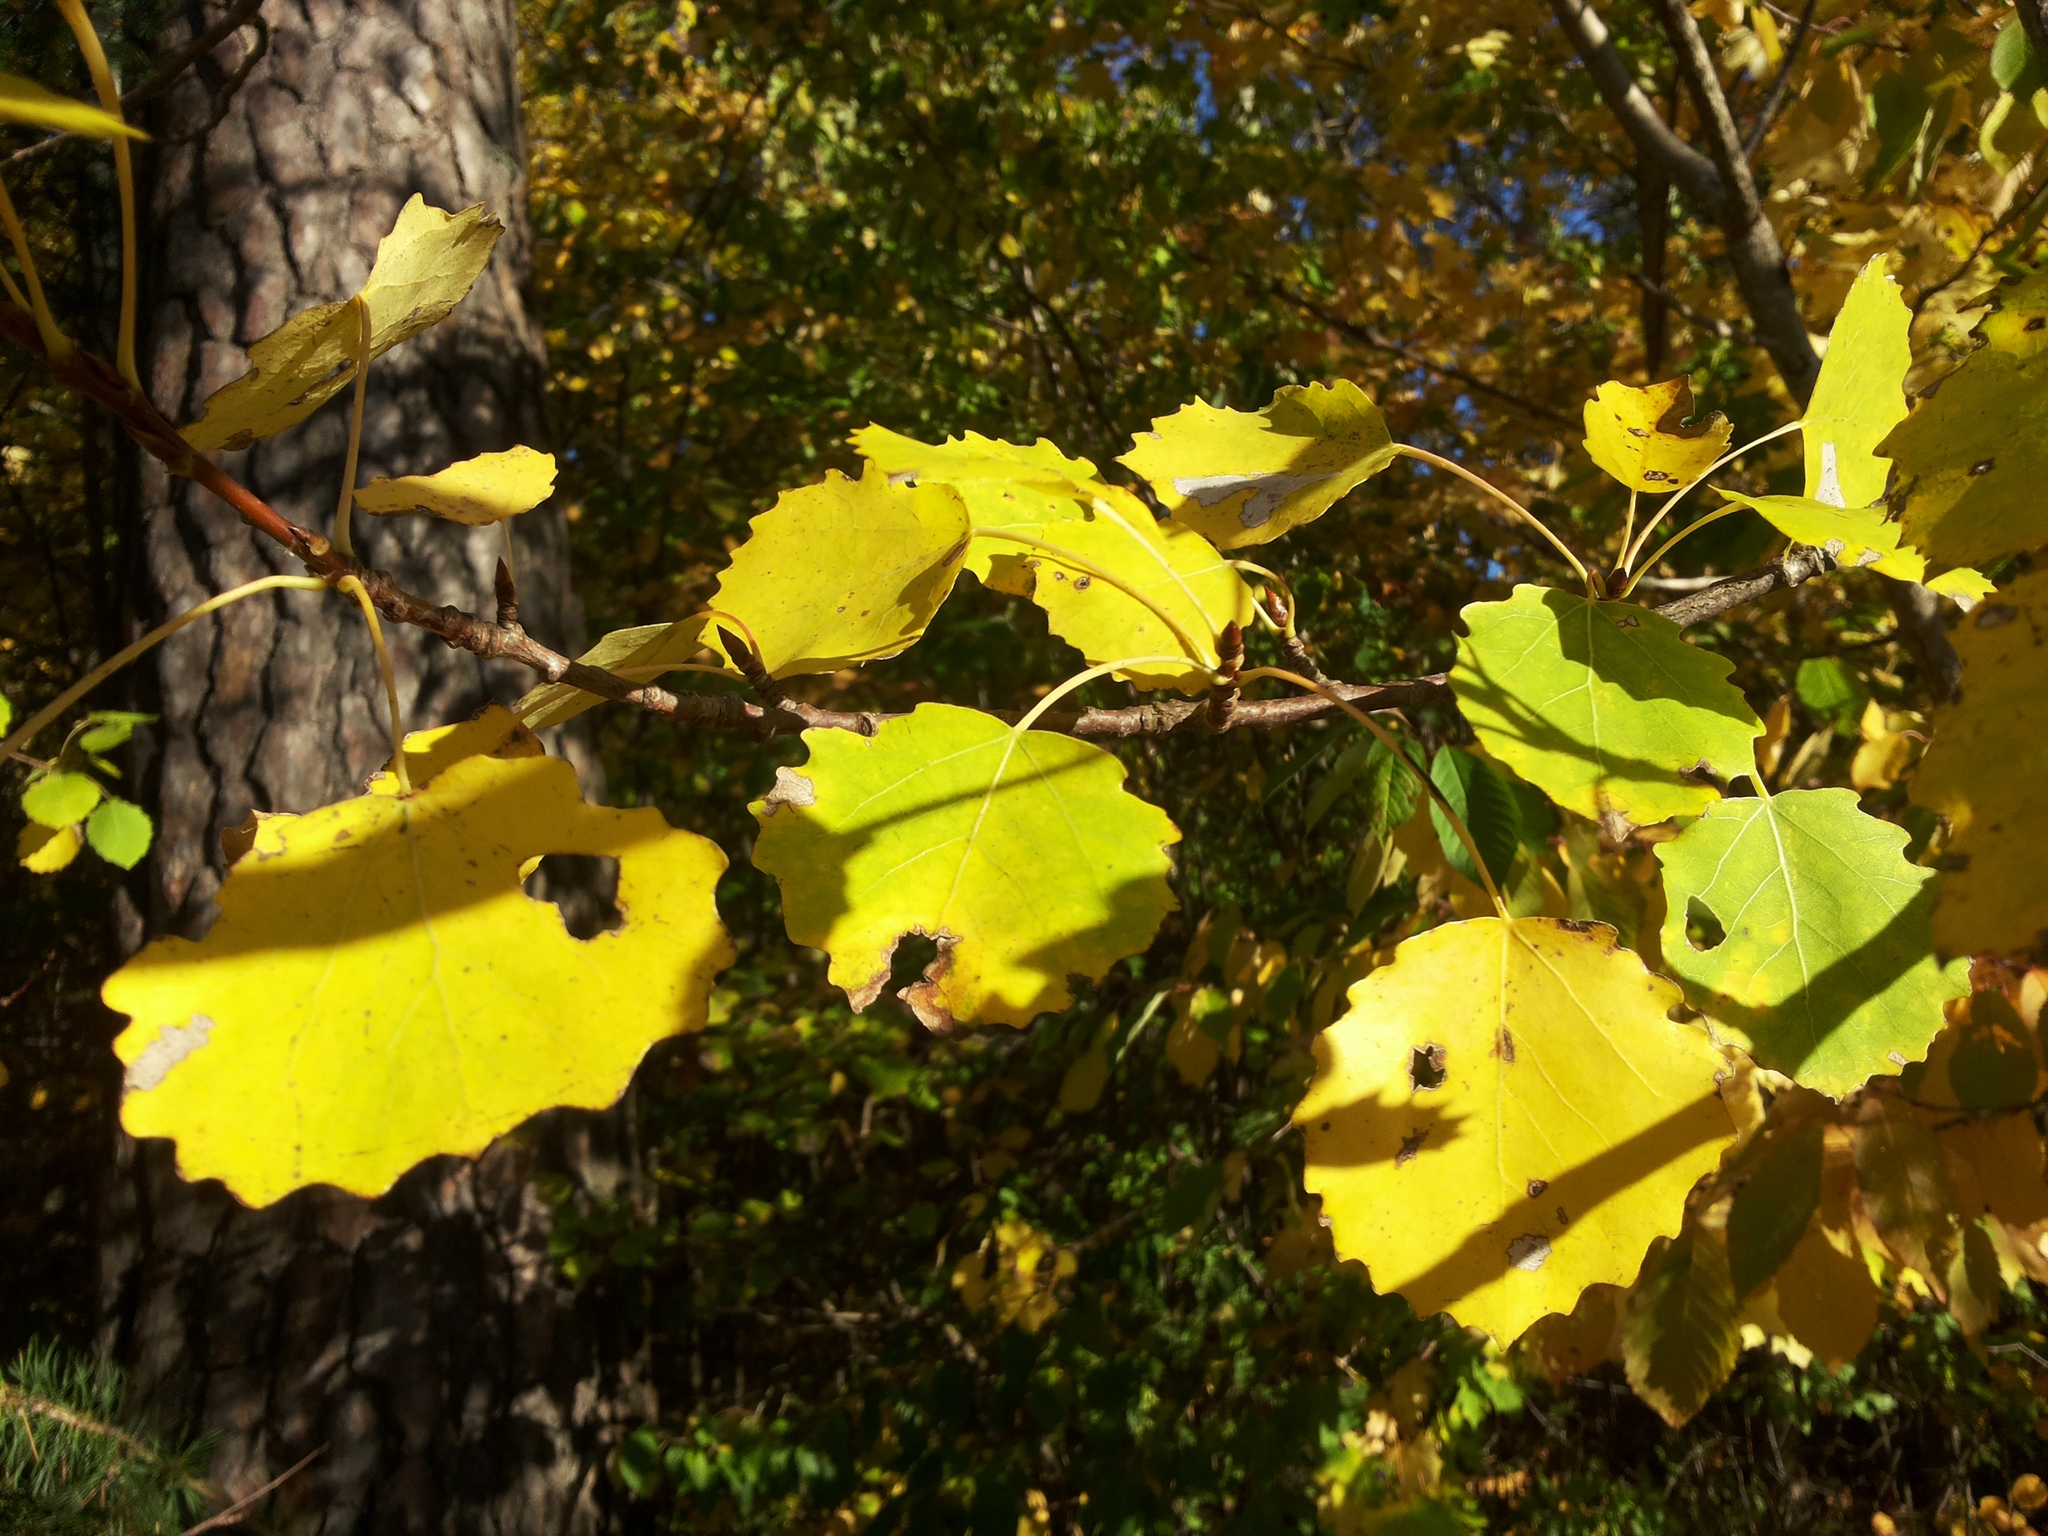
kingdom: Plantae
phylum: Tracheophyta
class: Magnoliopsida
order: Malpighiales
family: Salicaceae
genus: Populus
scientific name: Populus tremula
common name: European aspen
